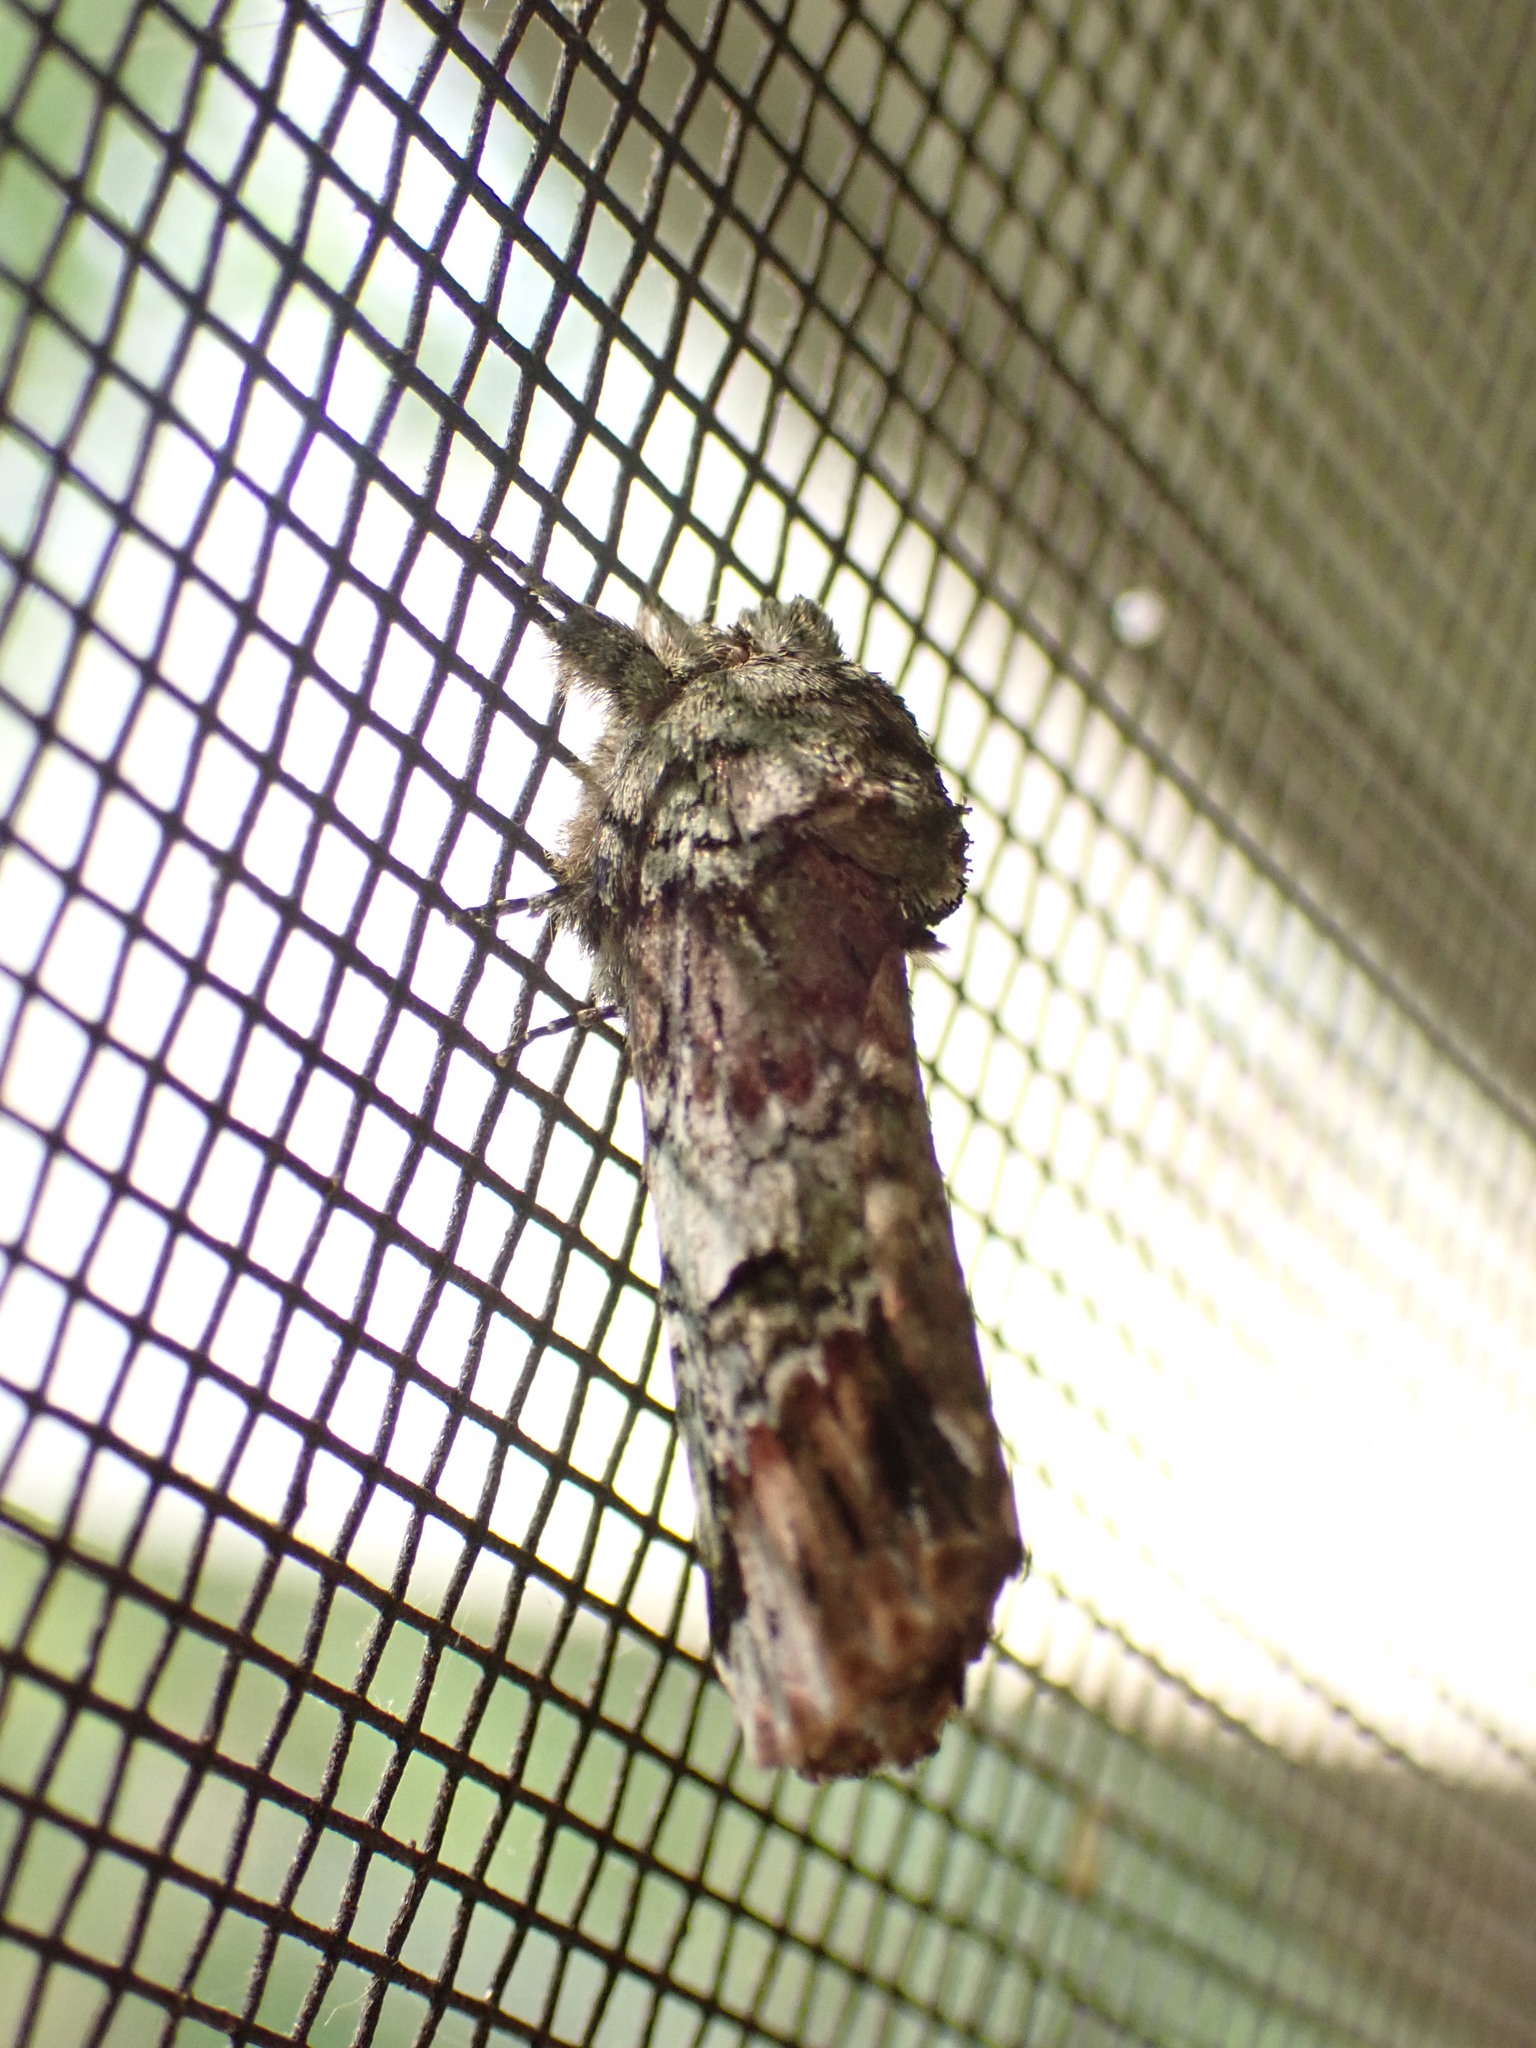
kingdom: Animalia
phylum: Arthropoda
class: Insecta
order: Lepidoptera
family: Notodontidae
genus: Schizura
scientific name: Schizura
